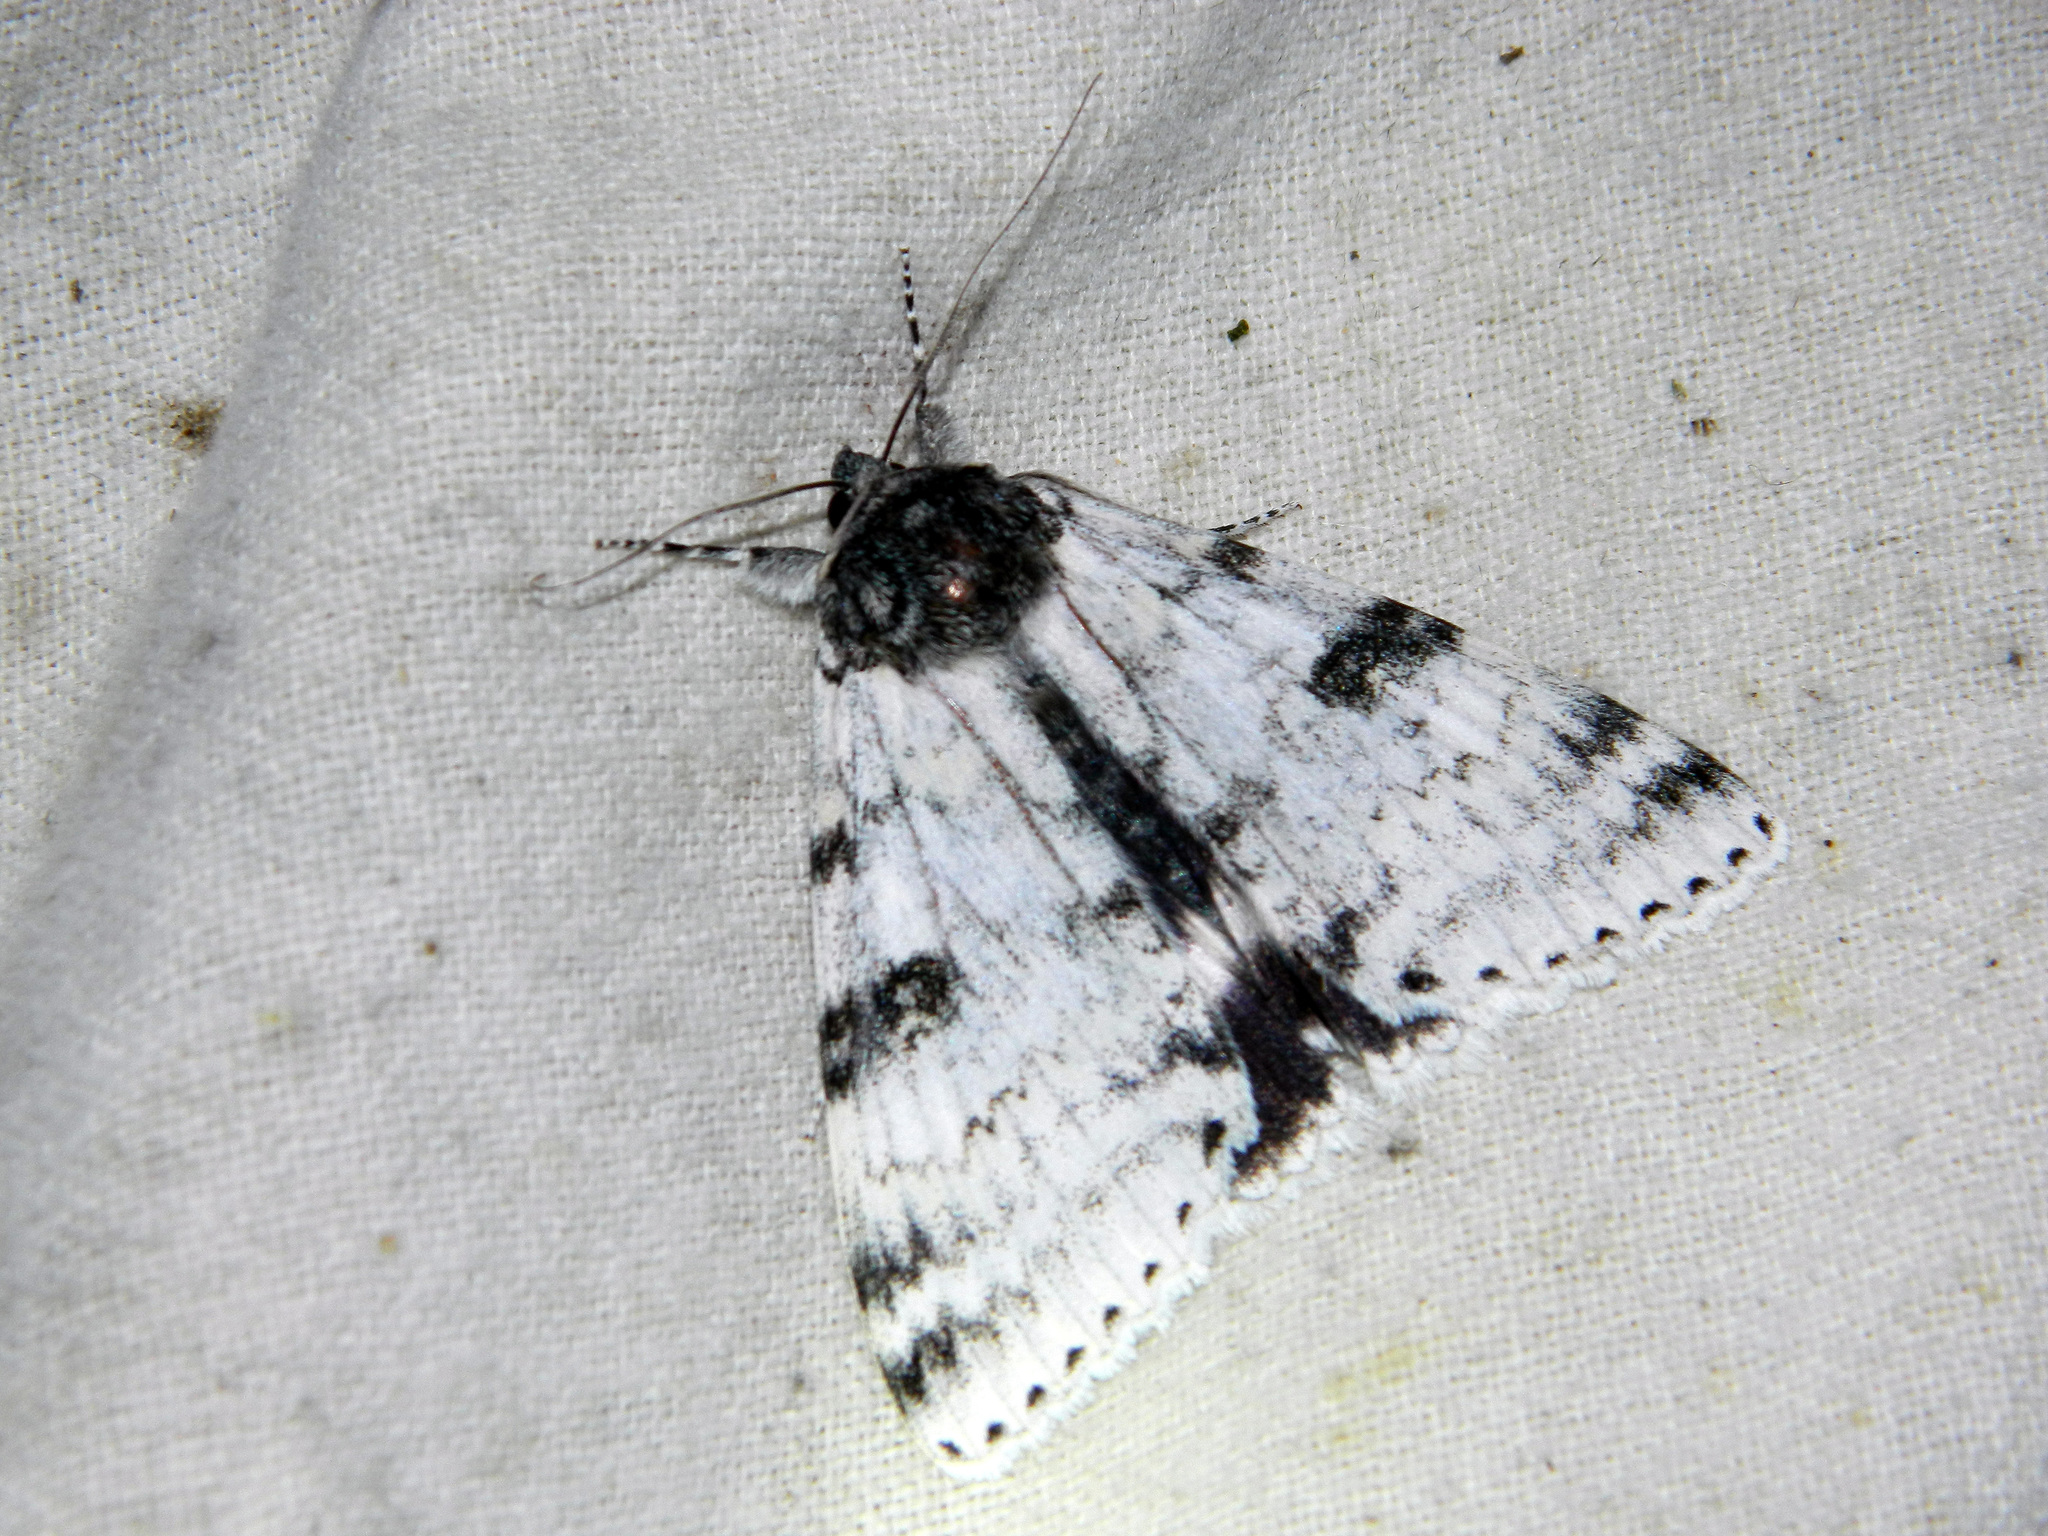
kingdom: Animalia
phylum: Arthropoda
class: Insecta
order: Lepidoptera
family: Erebidae
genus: Catocala
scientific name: Catocala relicta
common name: White underwing
